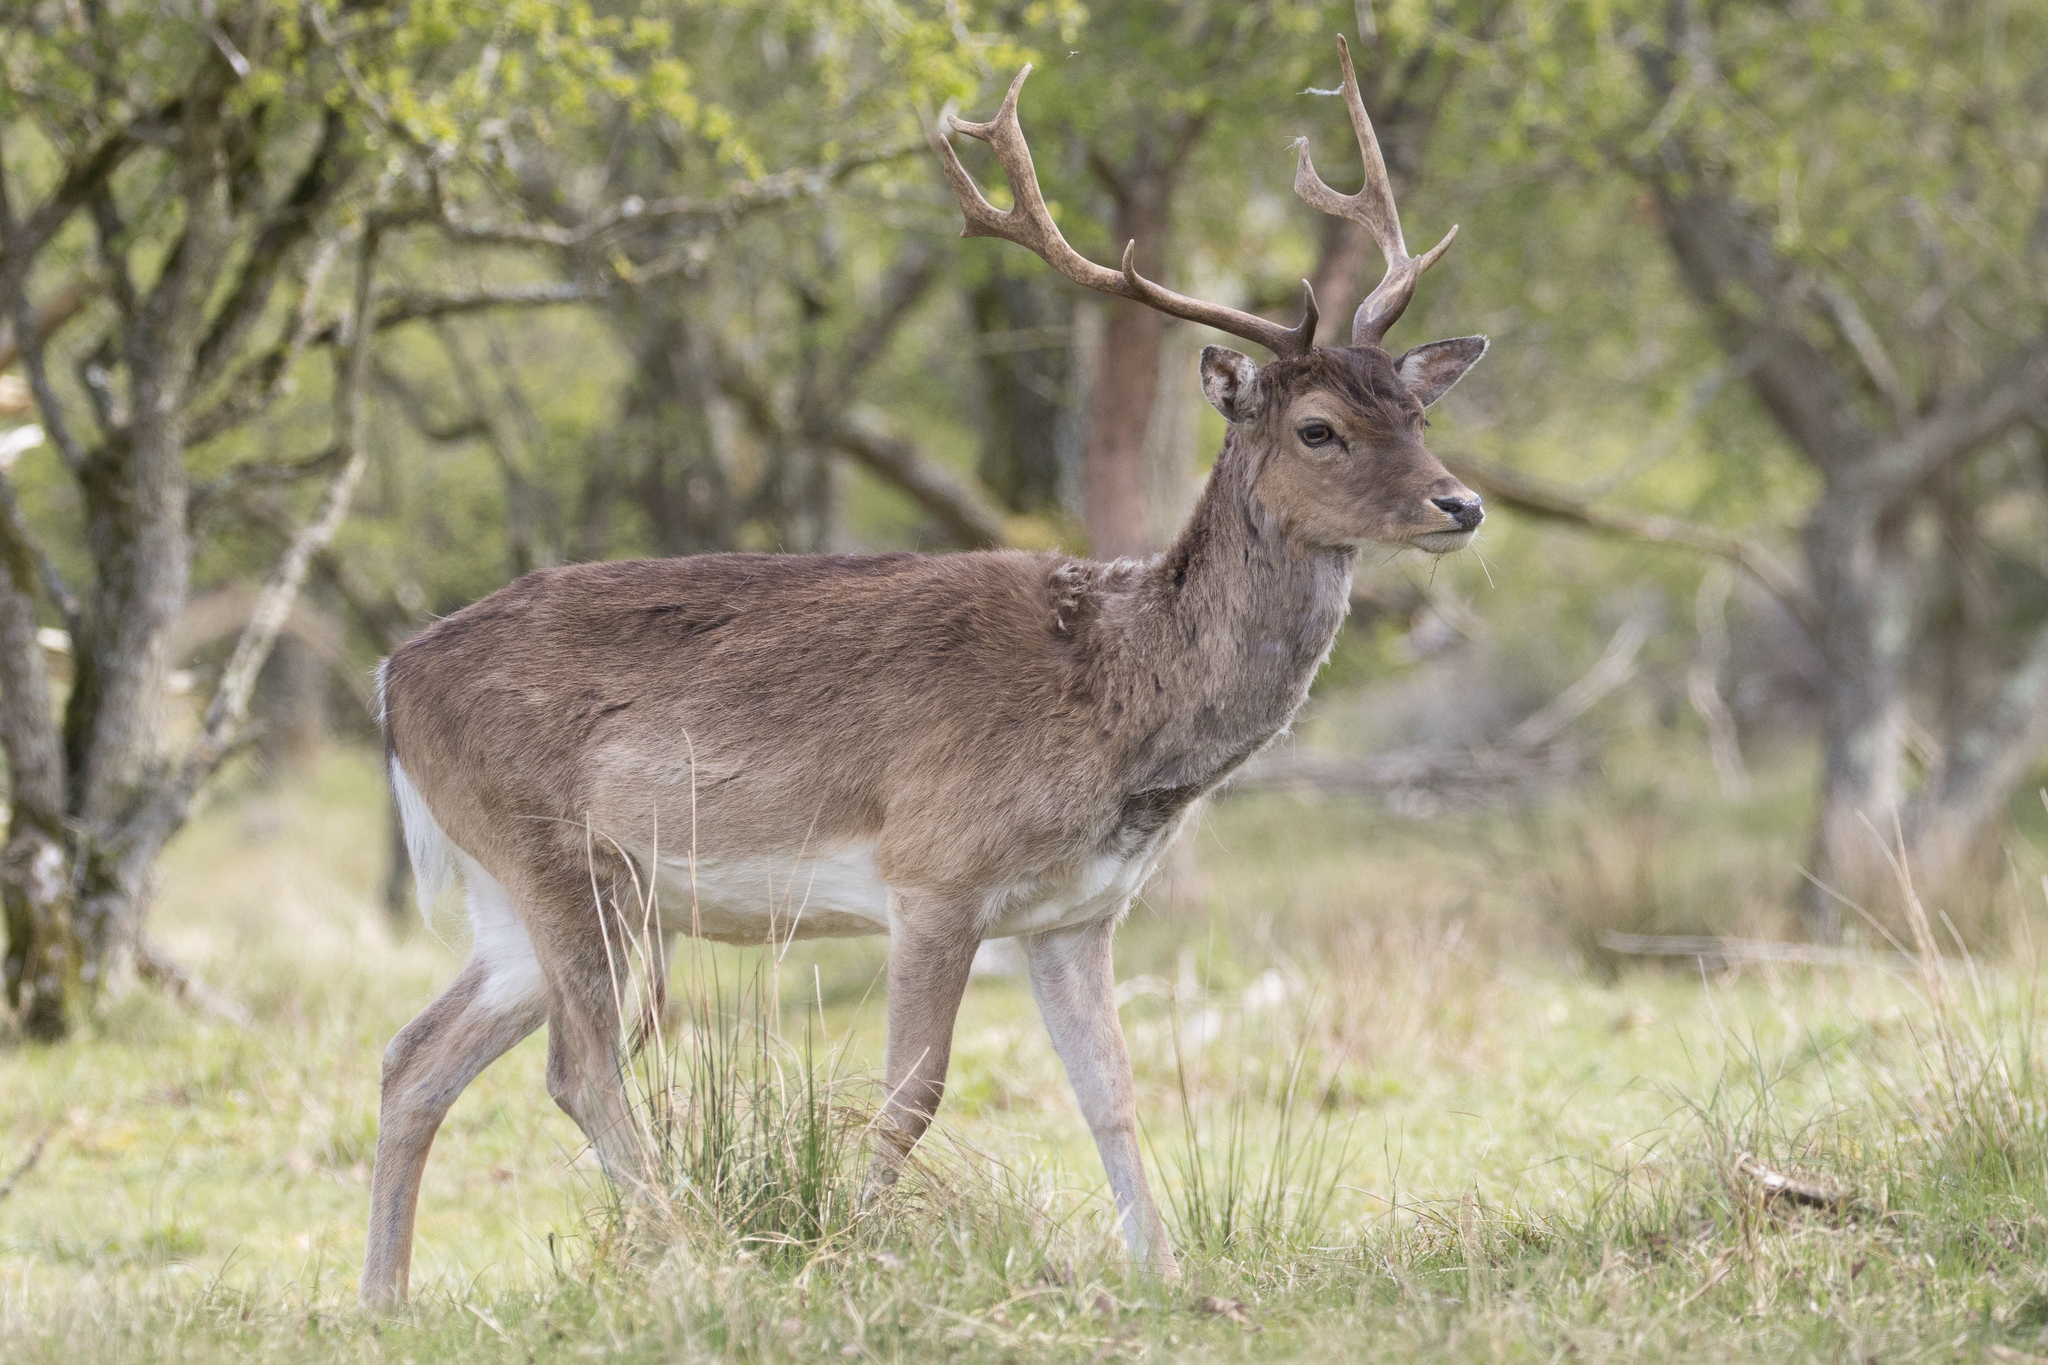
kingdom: Animalia
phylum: Chordata
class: Mammalia
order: Artiodactyla
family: Cervidae
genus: Dama
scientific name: Dama dama
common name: Fallow deer
